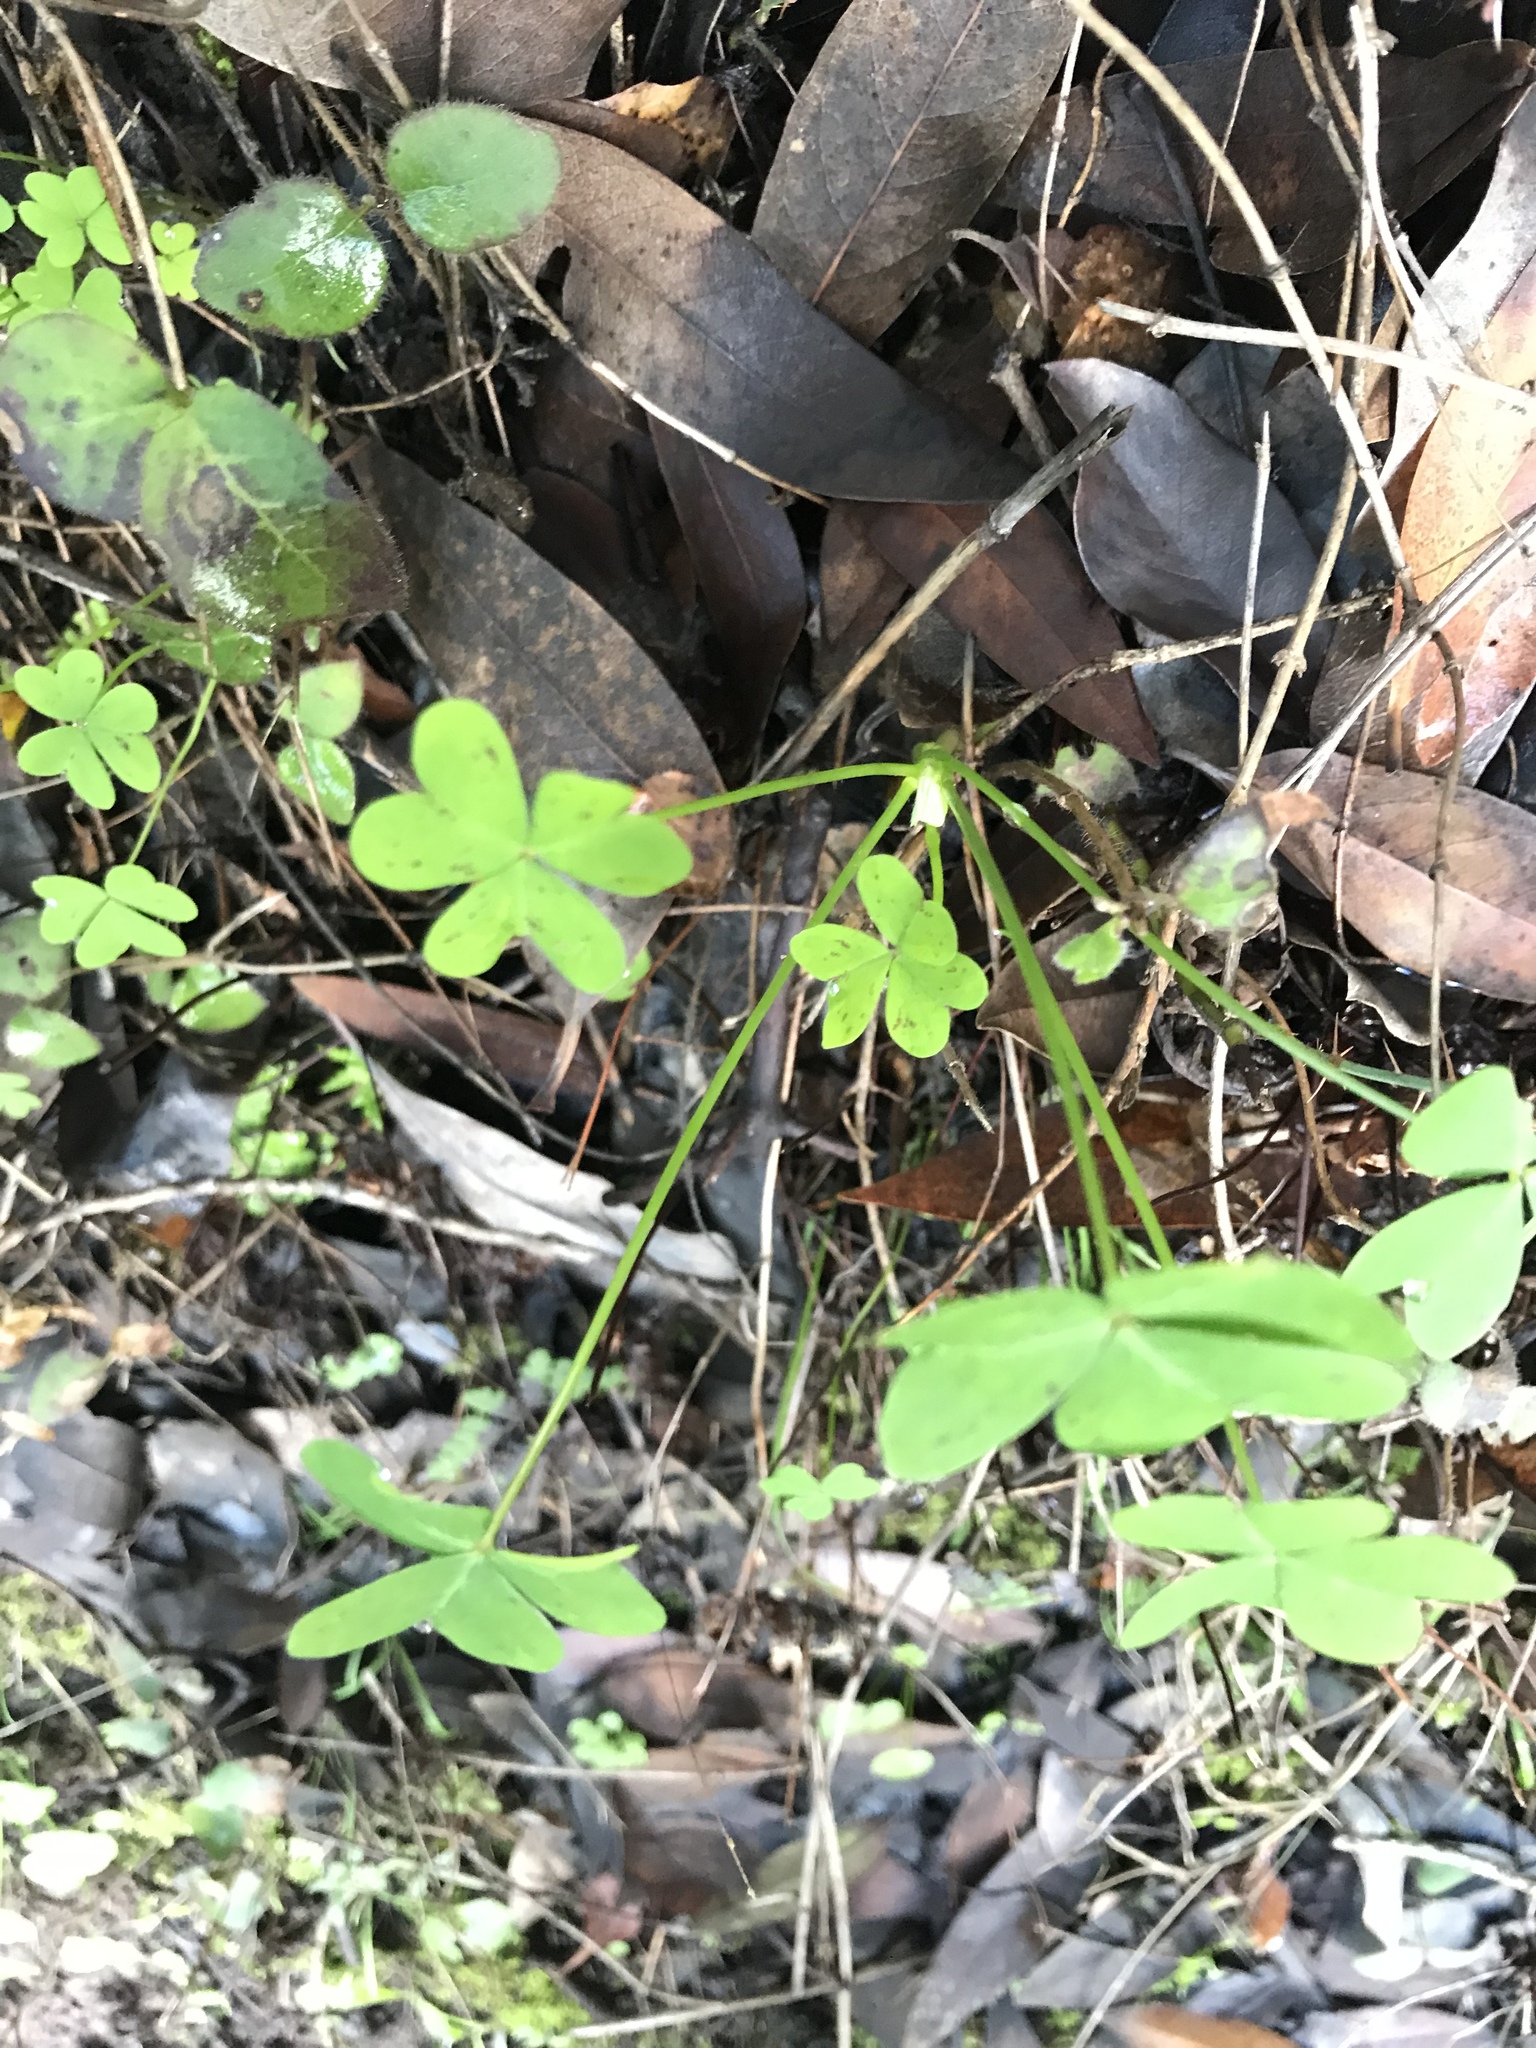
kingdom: Plantae
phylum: Tracheophyta
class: Magnoliopsida
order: Oxalidales
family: Oxalidaceae
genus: Oxalis
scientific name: Oxalis pes-caprae
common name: Bermuda-buttercup
